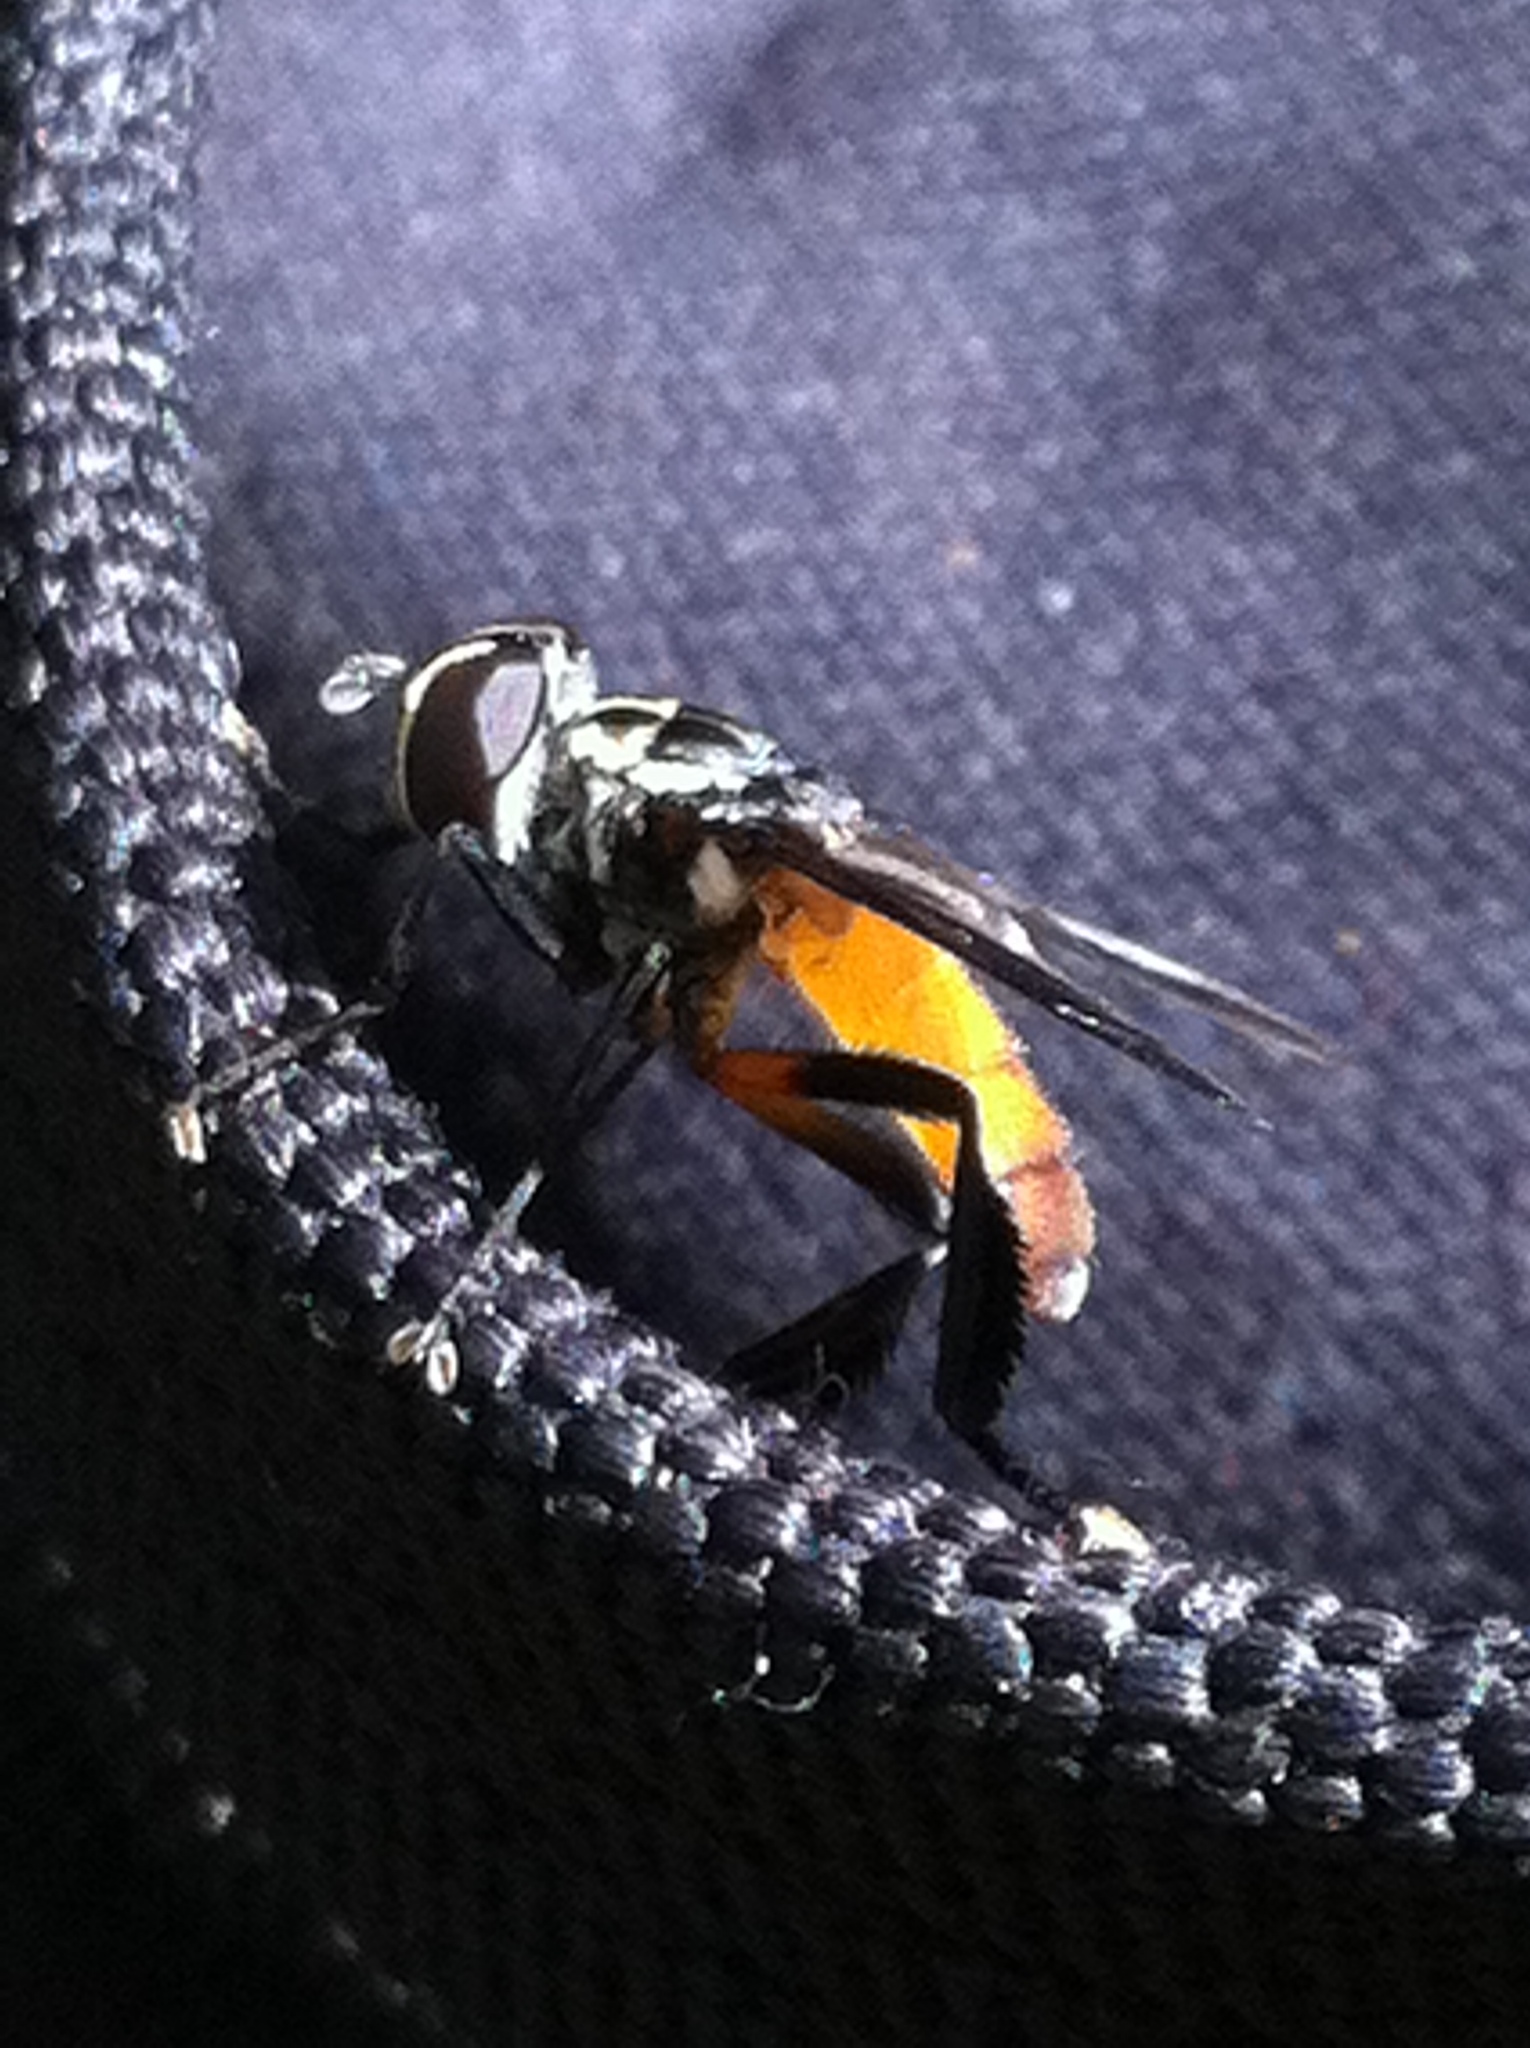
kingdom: Animalia
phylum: Arthropoda
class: Insecta
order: Diptera
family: Tachinidae
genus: Trichopoda
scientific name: Trichopoda pennipes
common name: Tachinid fly
